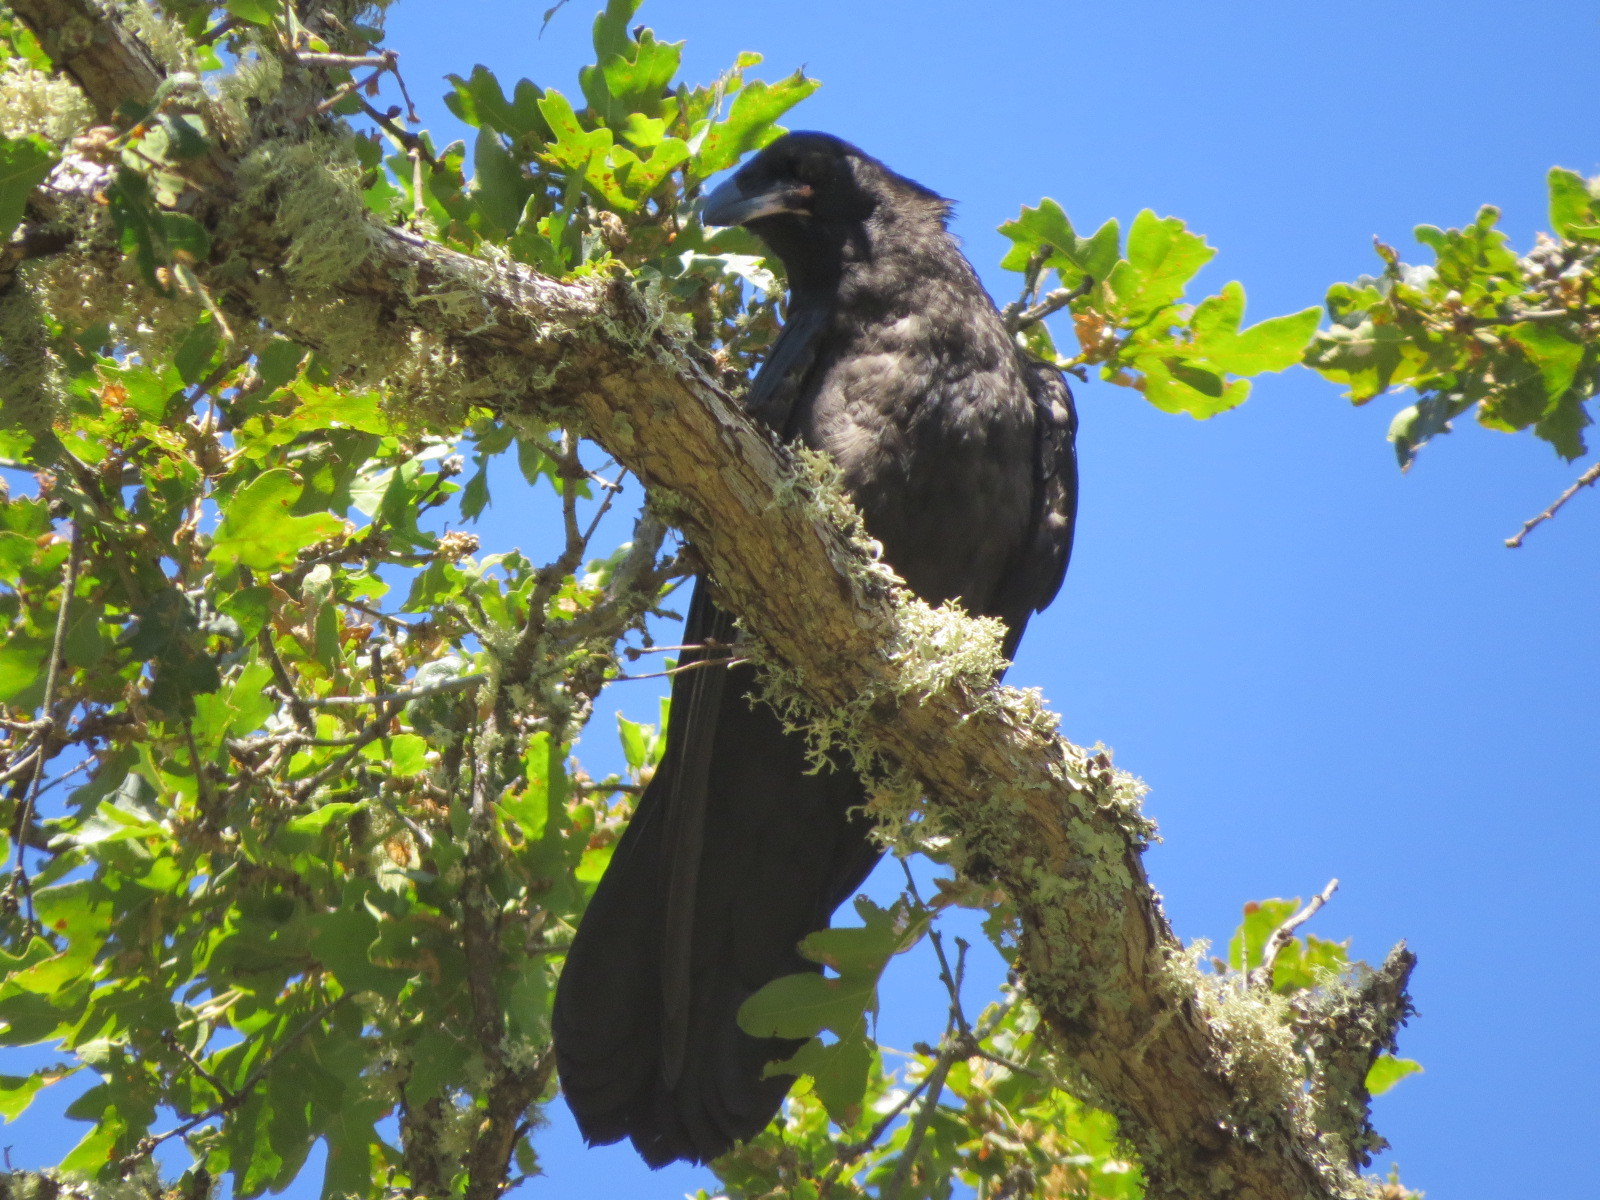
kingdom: Animalia
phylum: Chordata
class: Aves
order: Passeriformes
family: Corvidae
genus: Corvus
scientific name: Corvus corax
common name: Common raven
